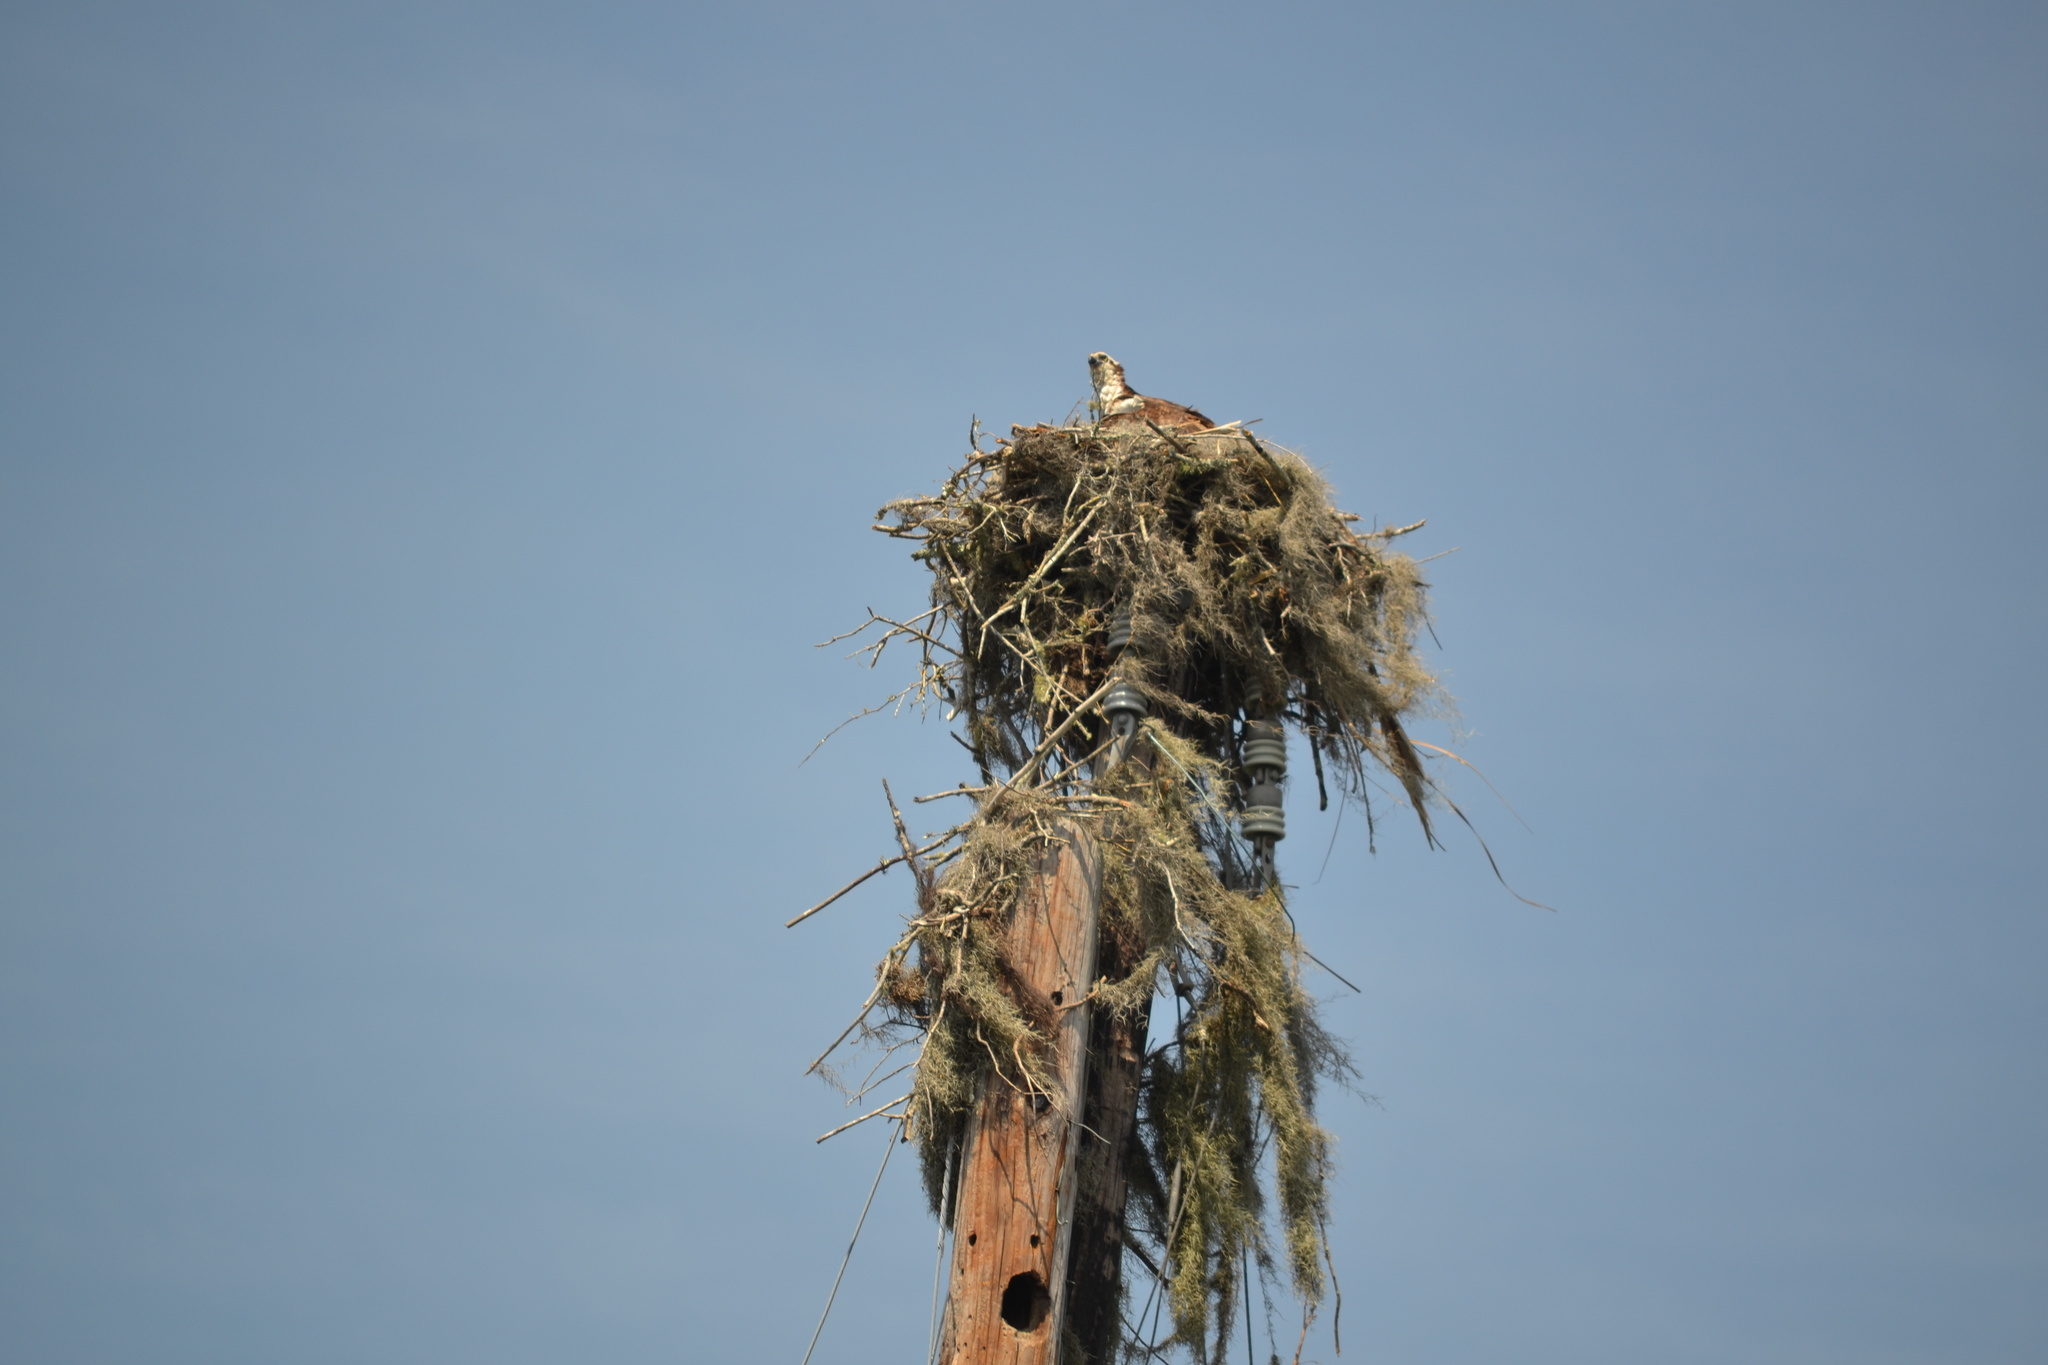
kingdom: Animalia
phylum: Chordata
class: Aves
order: Accipitriformes
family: Pandionidae
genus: Pandion
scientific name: Pandion haliaetus
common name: Osprey
